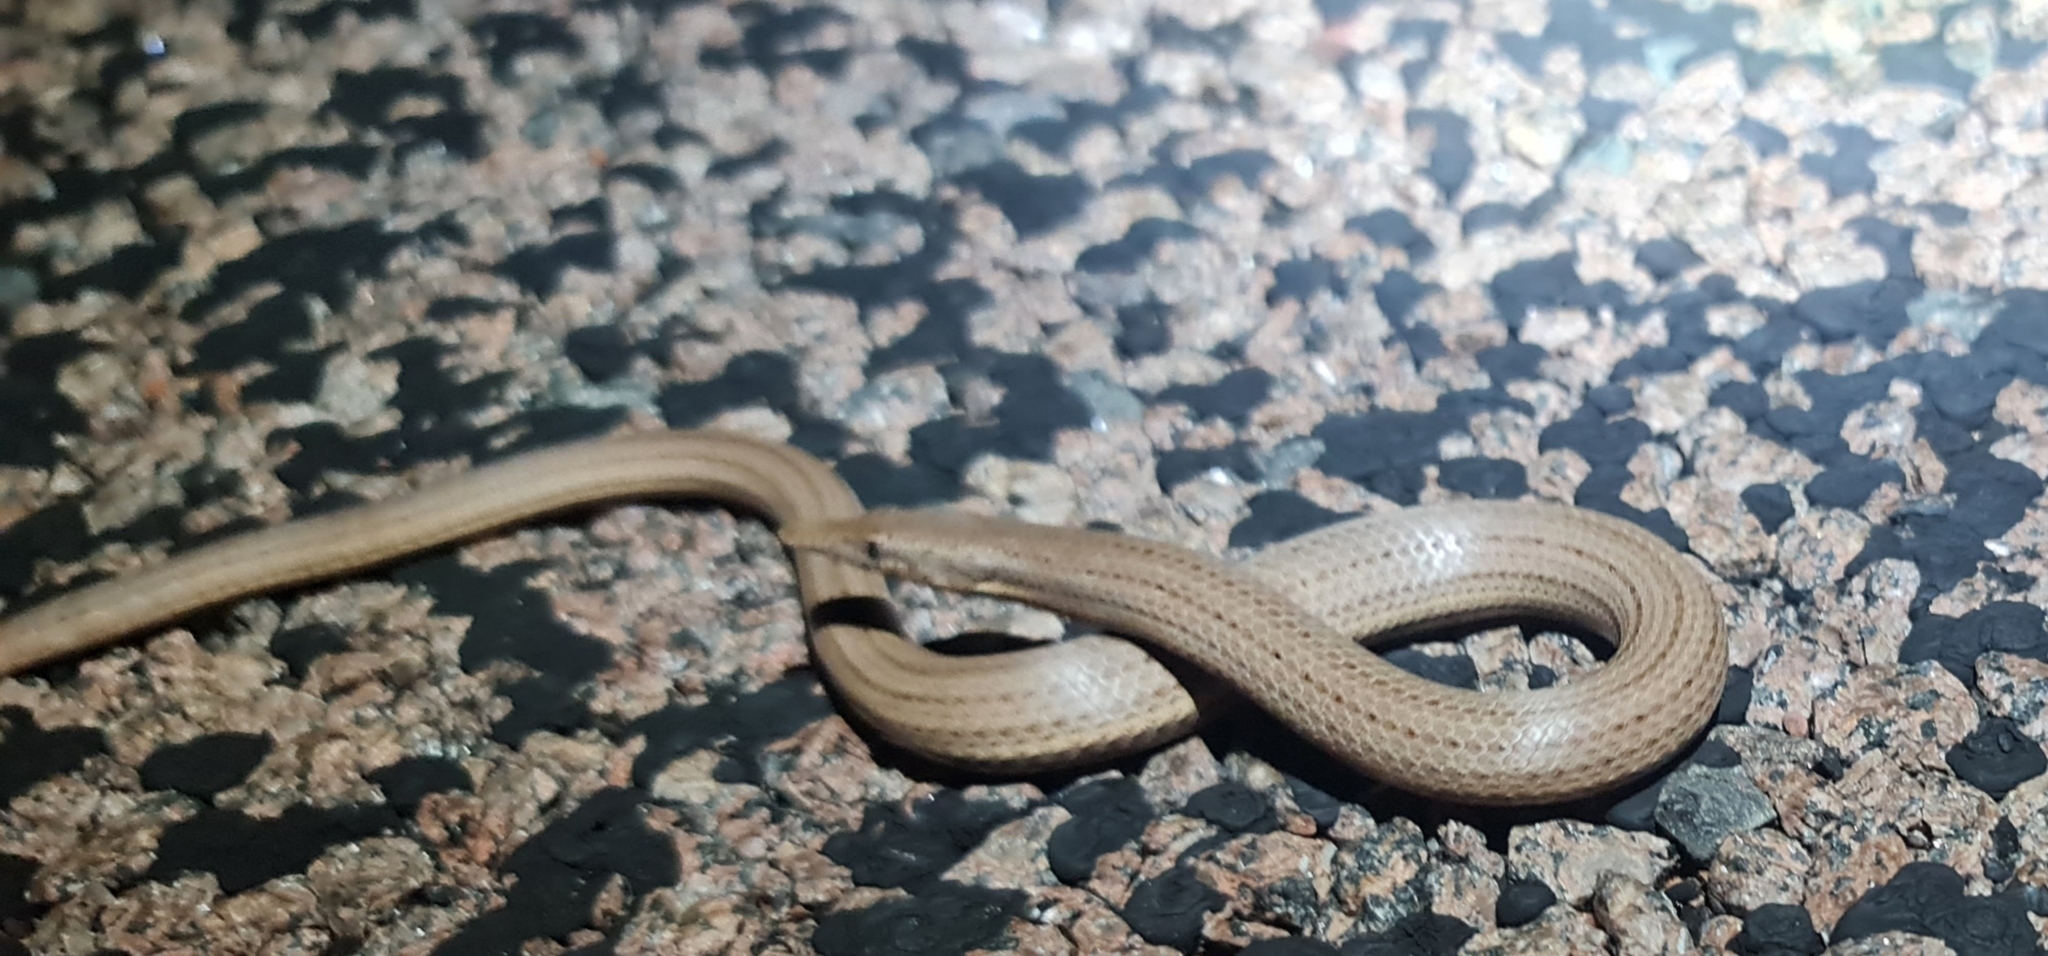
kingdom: Animalia
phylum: Chordata
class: Squamata
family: Pygopodidae
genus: Lialis
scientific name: Lialis burtonis
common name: Burton's legless lizard
